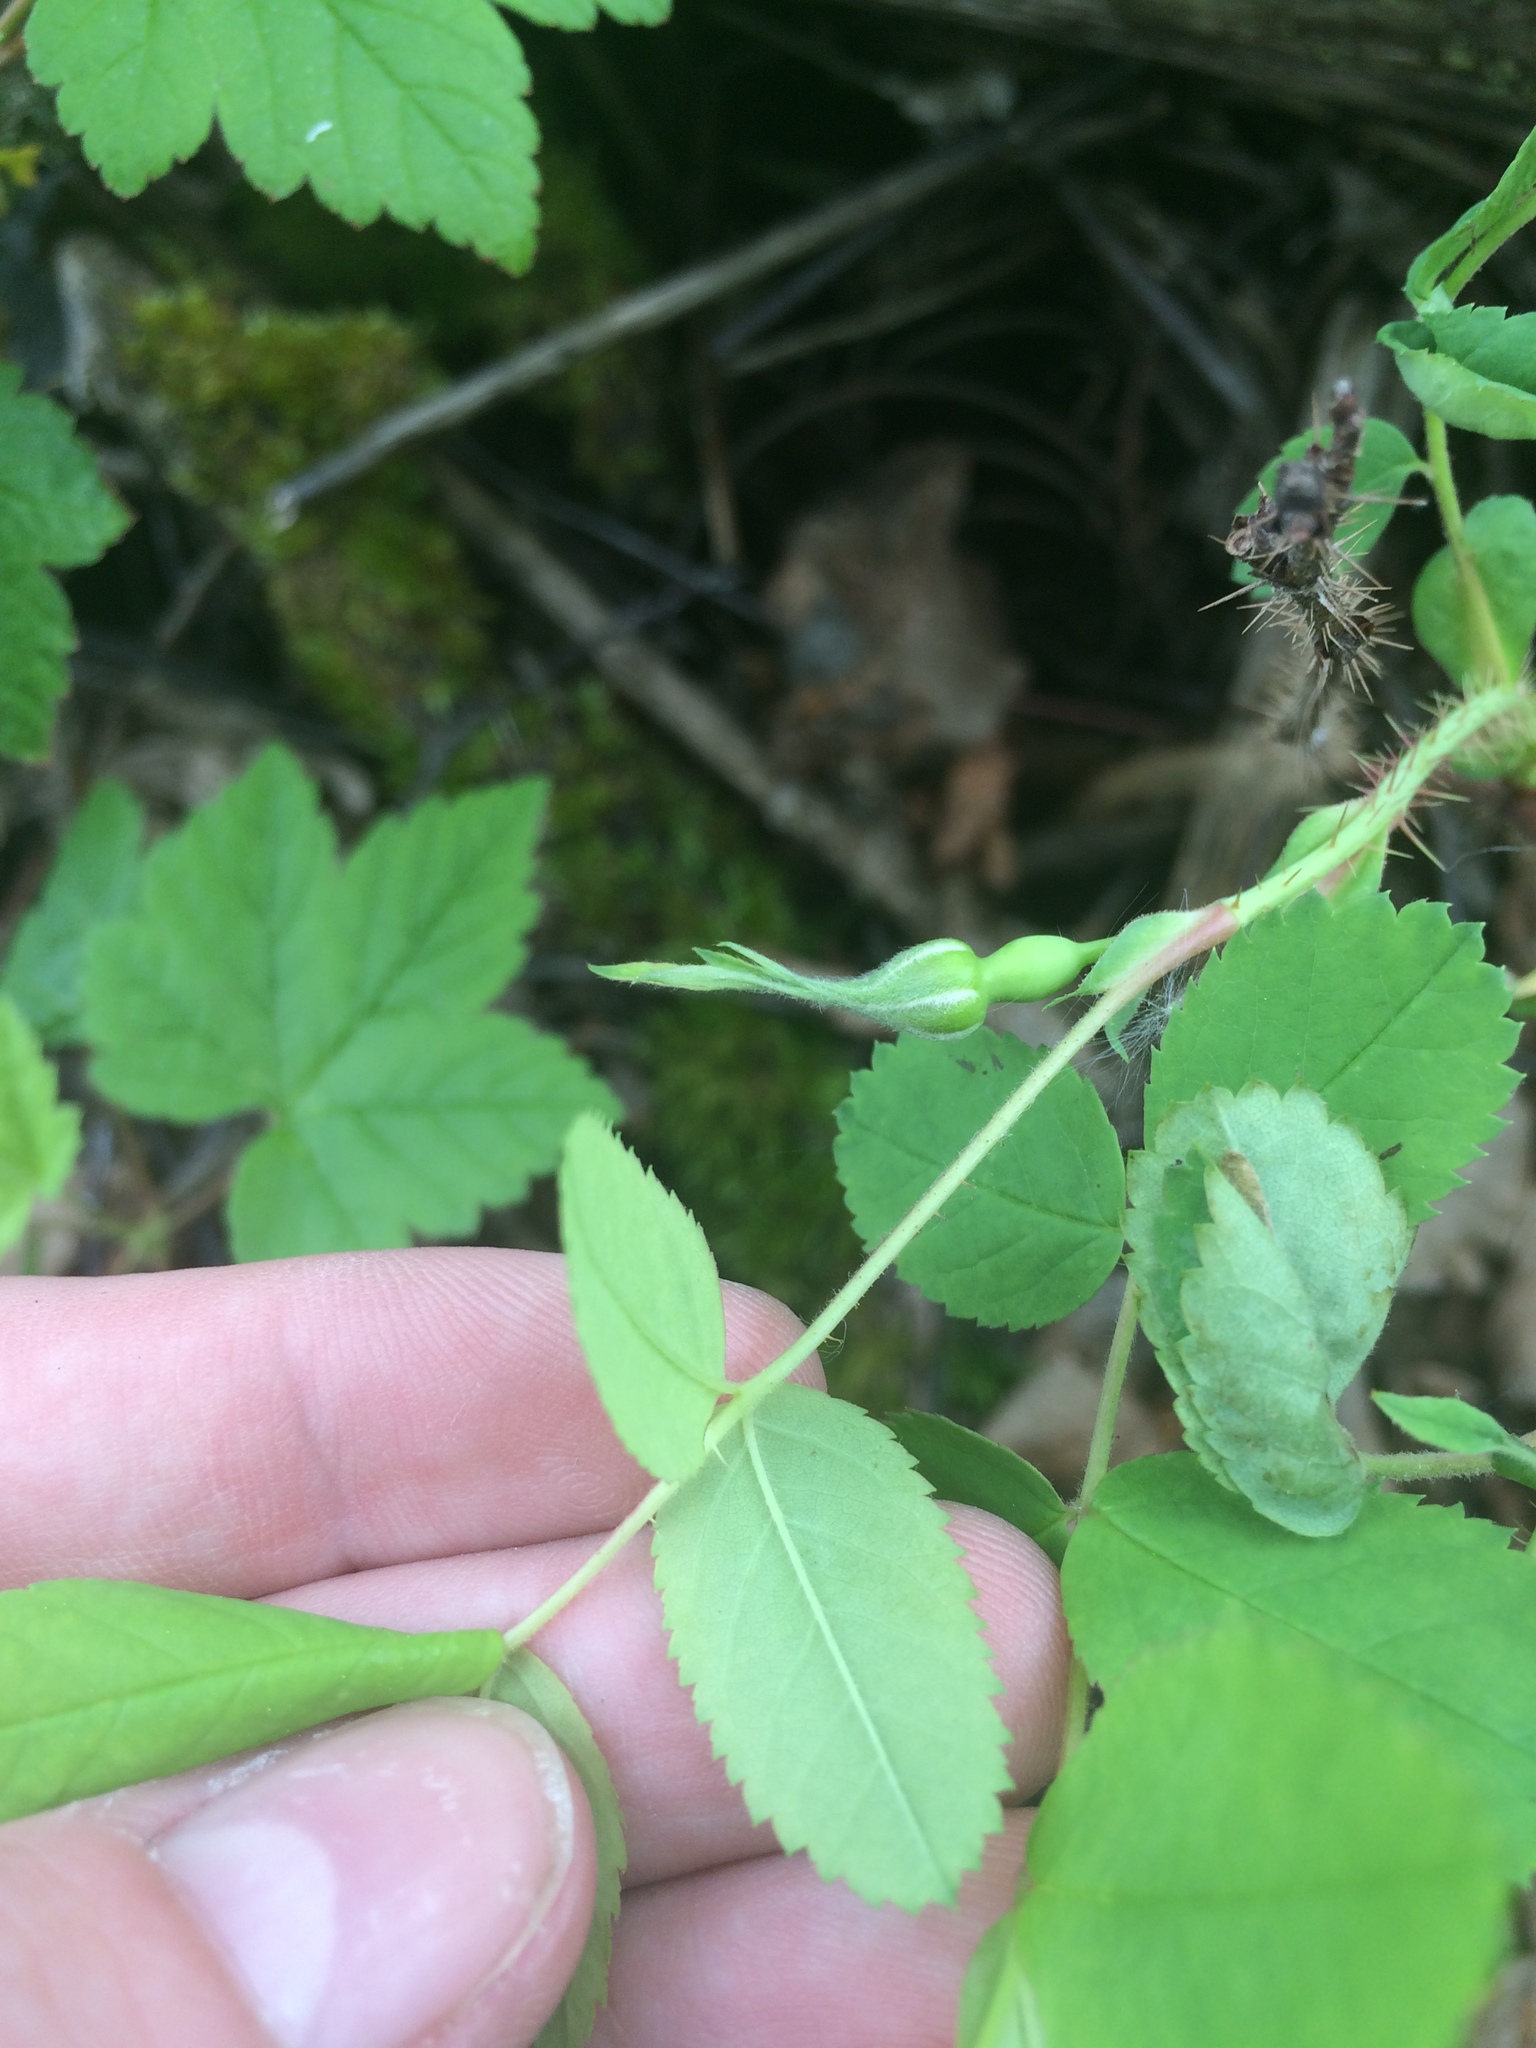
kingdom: Plantae
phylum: Tracheophyta
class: Magnoliopsida
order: Rosales
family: Rosaceae
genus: Rosa
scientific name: Rosa acicularis
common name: Prickly rose
